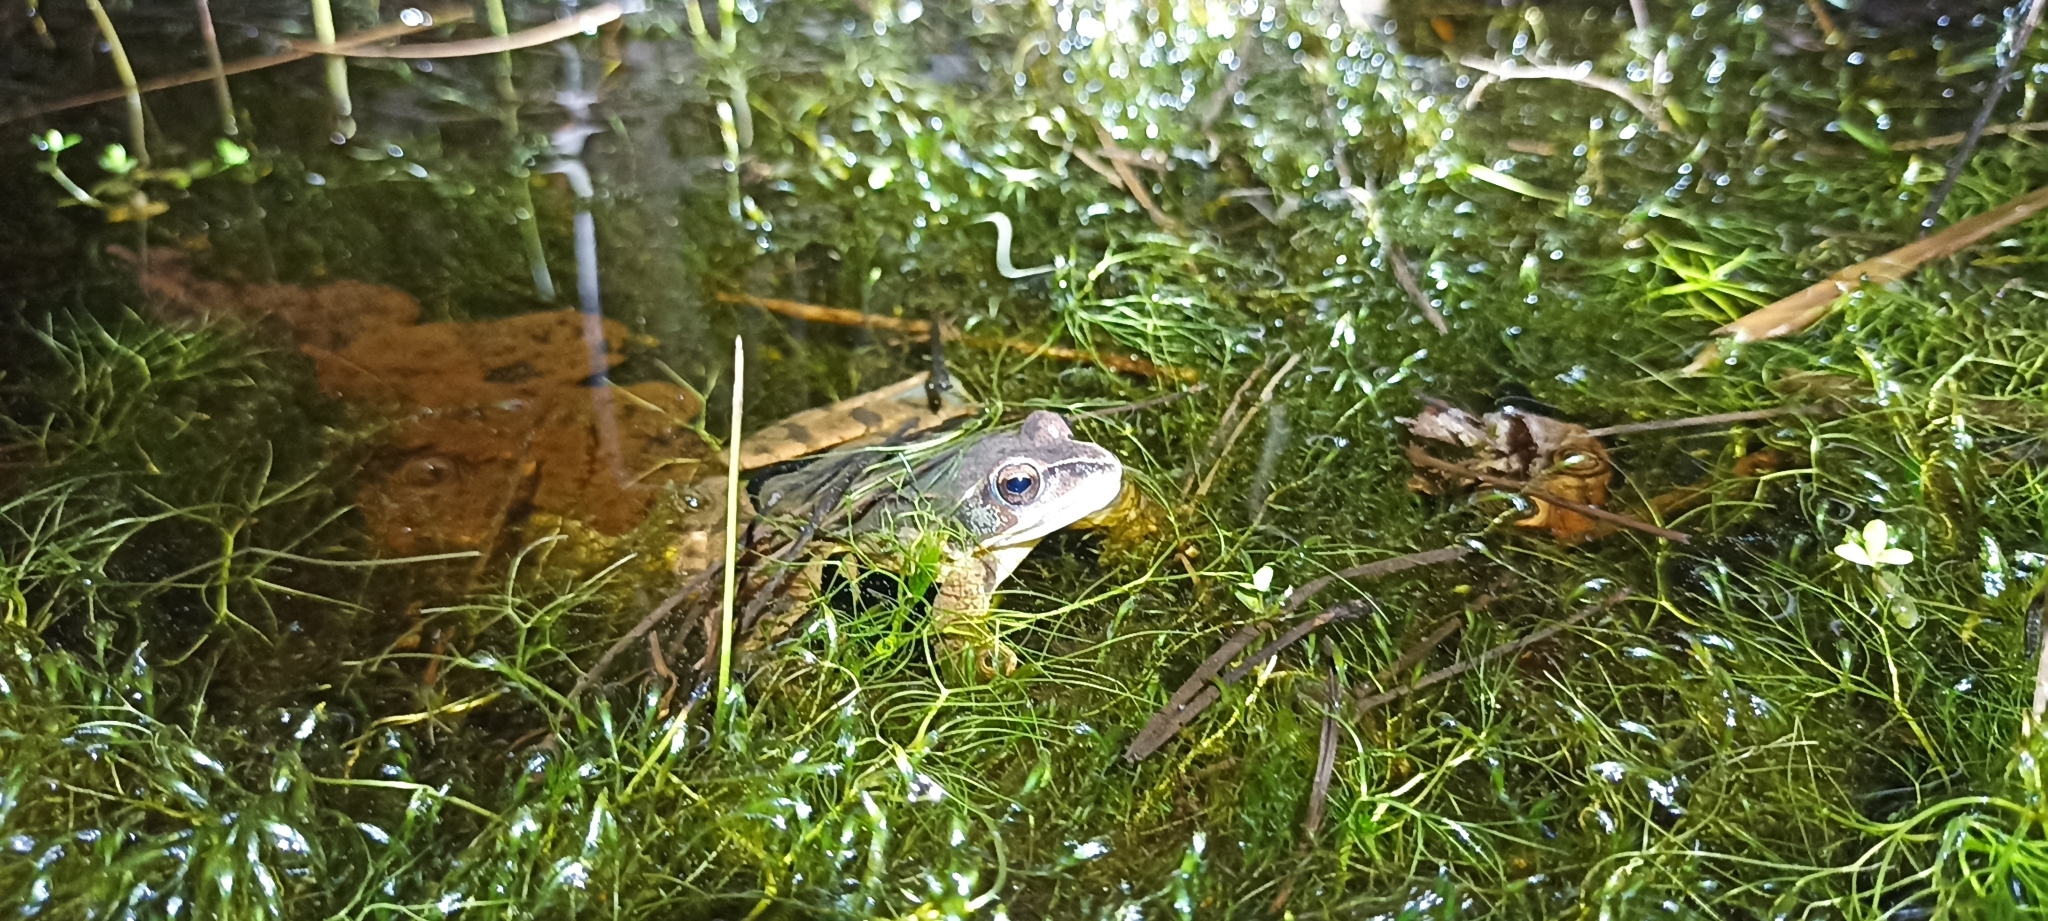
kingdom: Animalia
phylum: Chordata
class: Amphibia
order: Anura
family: Ranidae
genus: Rana
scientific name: Rana dalmatina
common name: Agile frog
